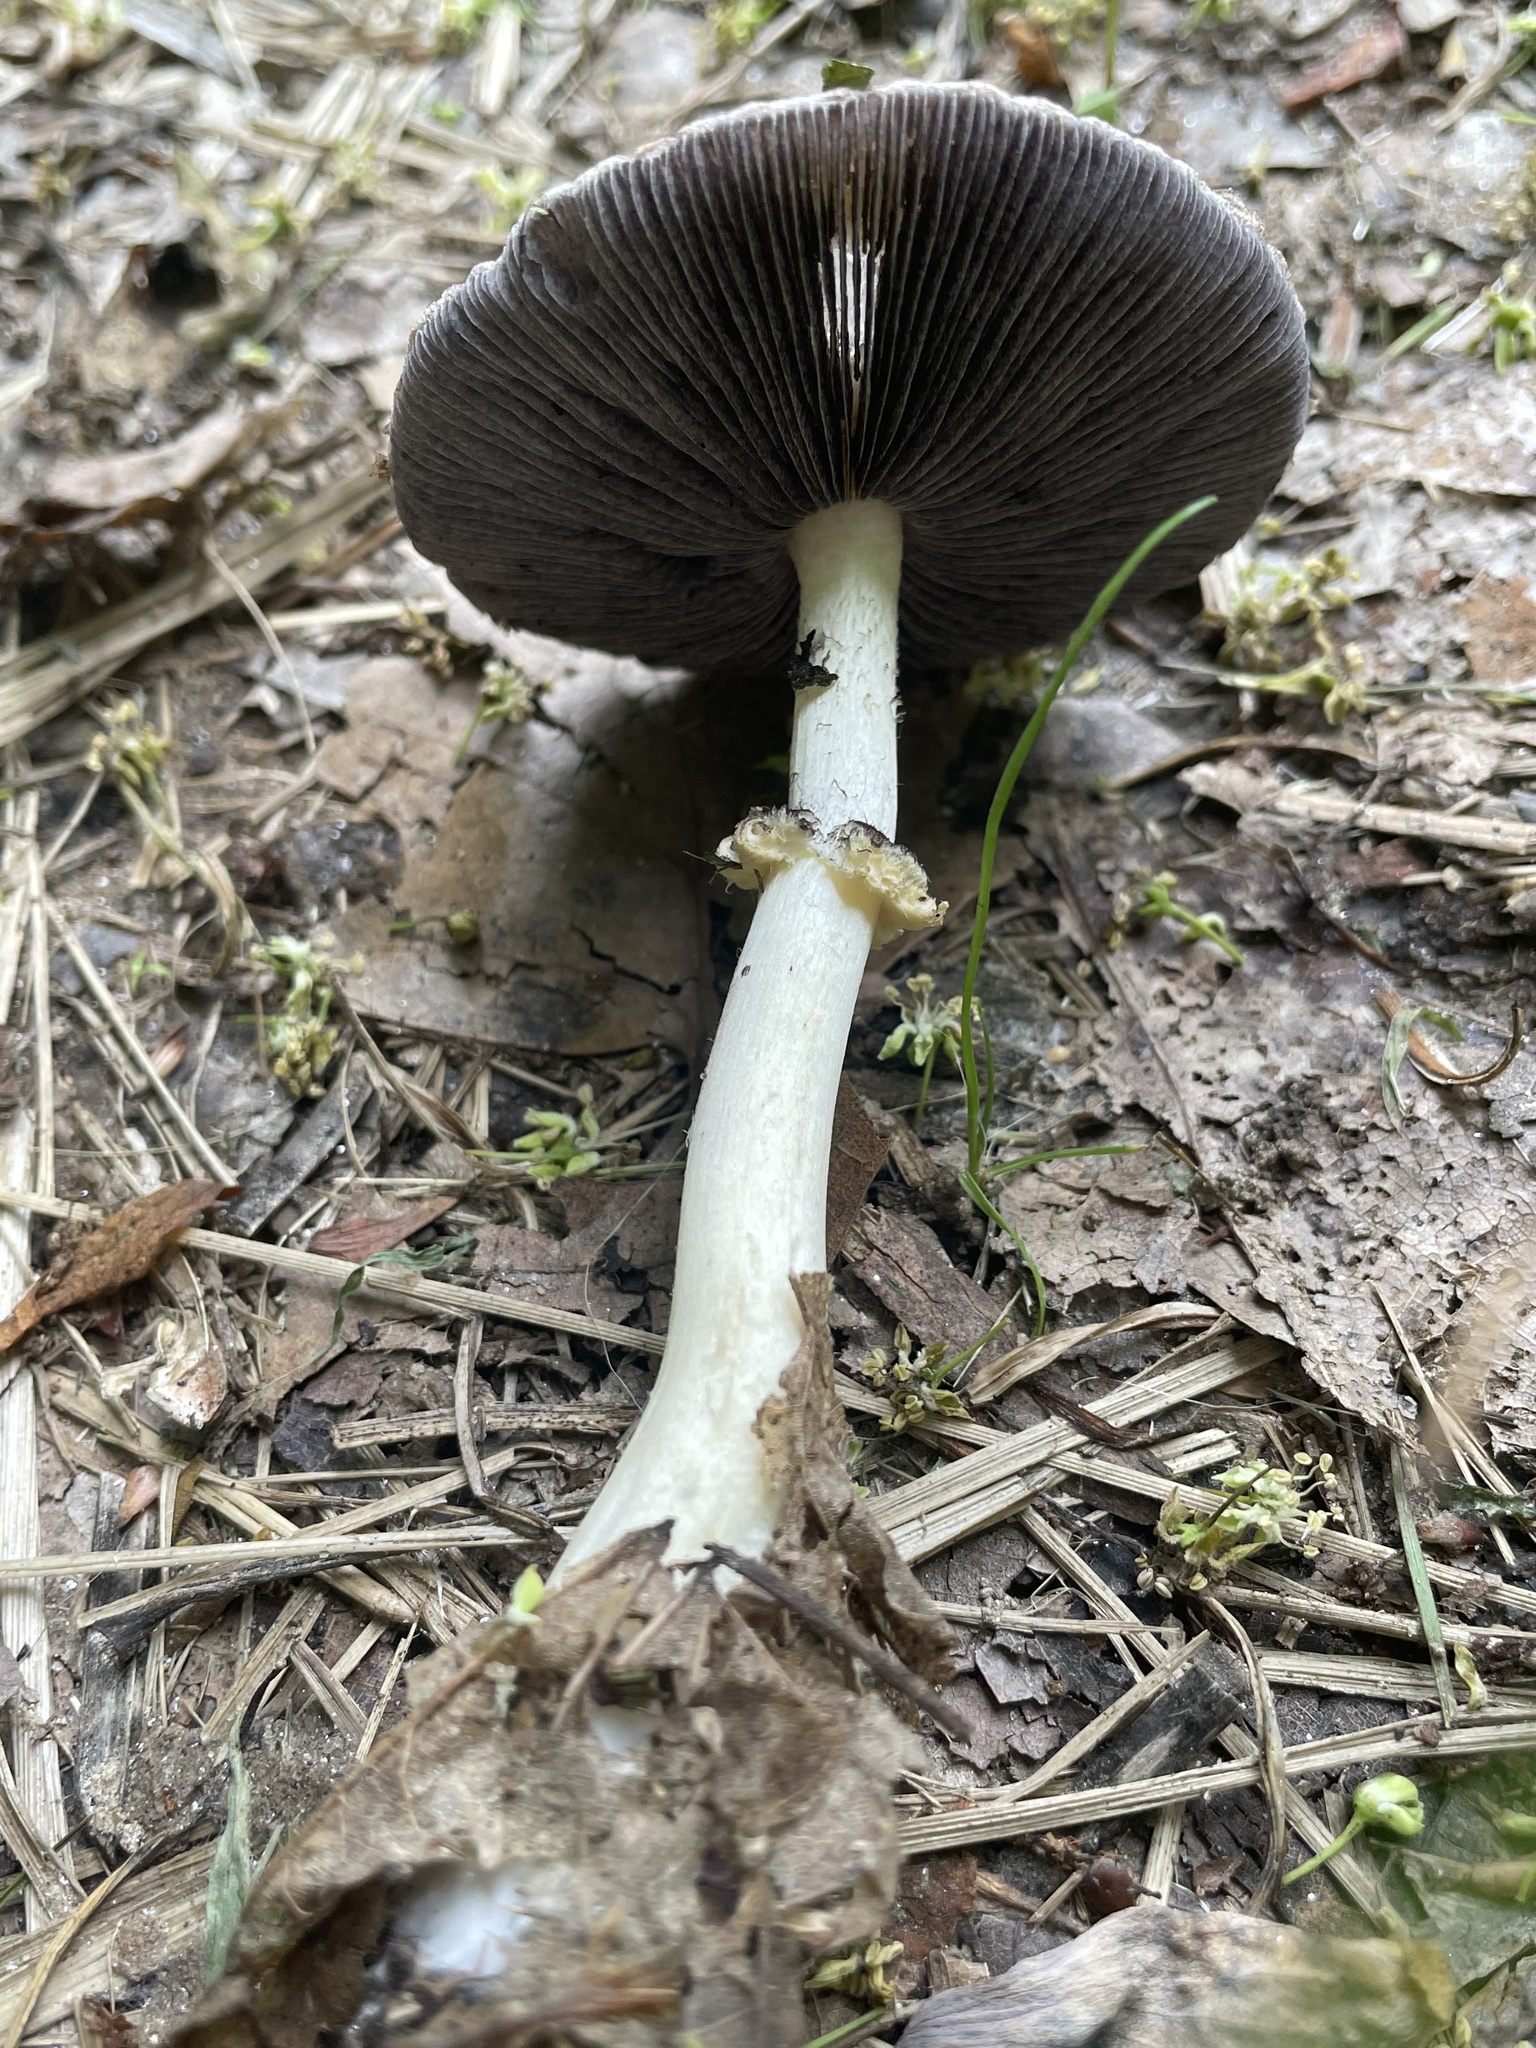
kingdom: Fungi
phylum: Basidiomycota
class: Agaricomycetes
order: Agaricales
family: Strophariaceae
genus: Stropharia
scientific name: Stropharia rugosoannulata
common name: Wine roundhead
